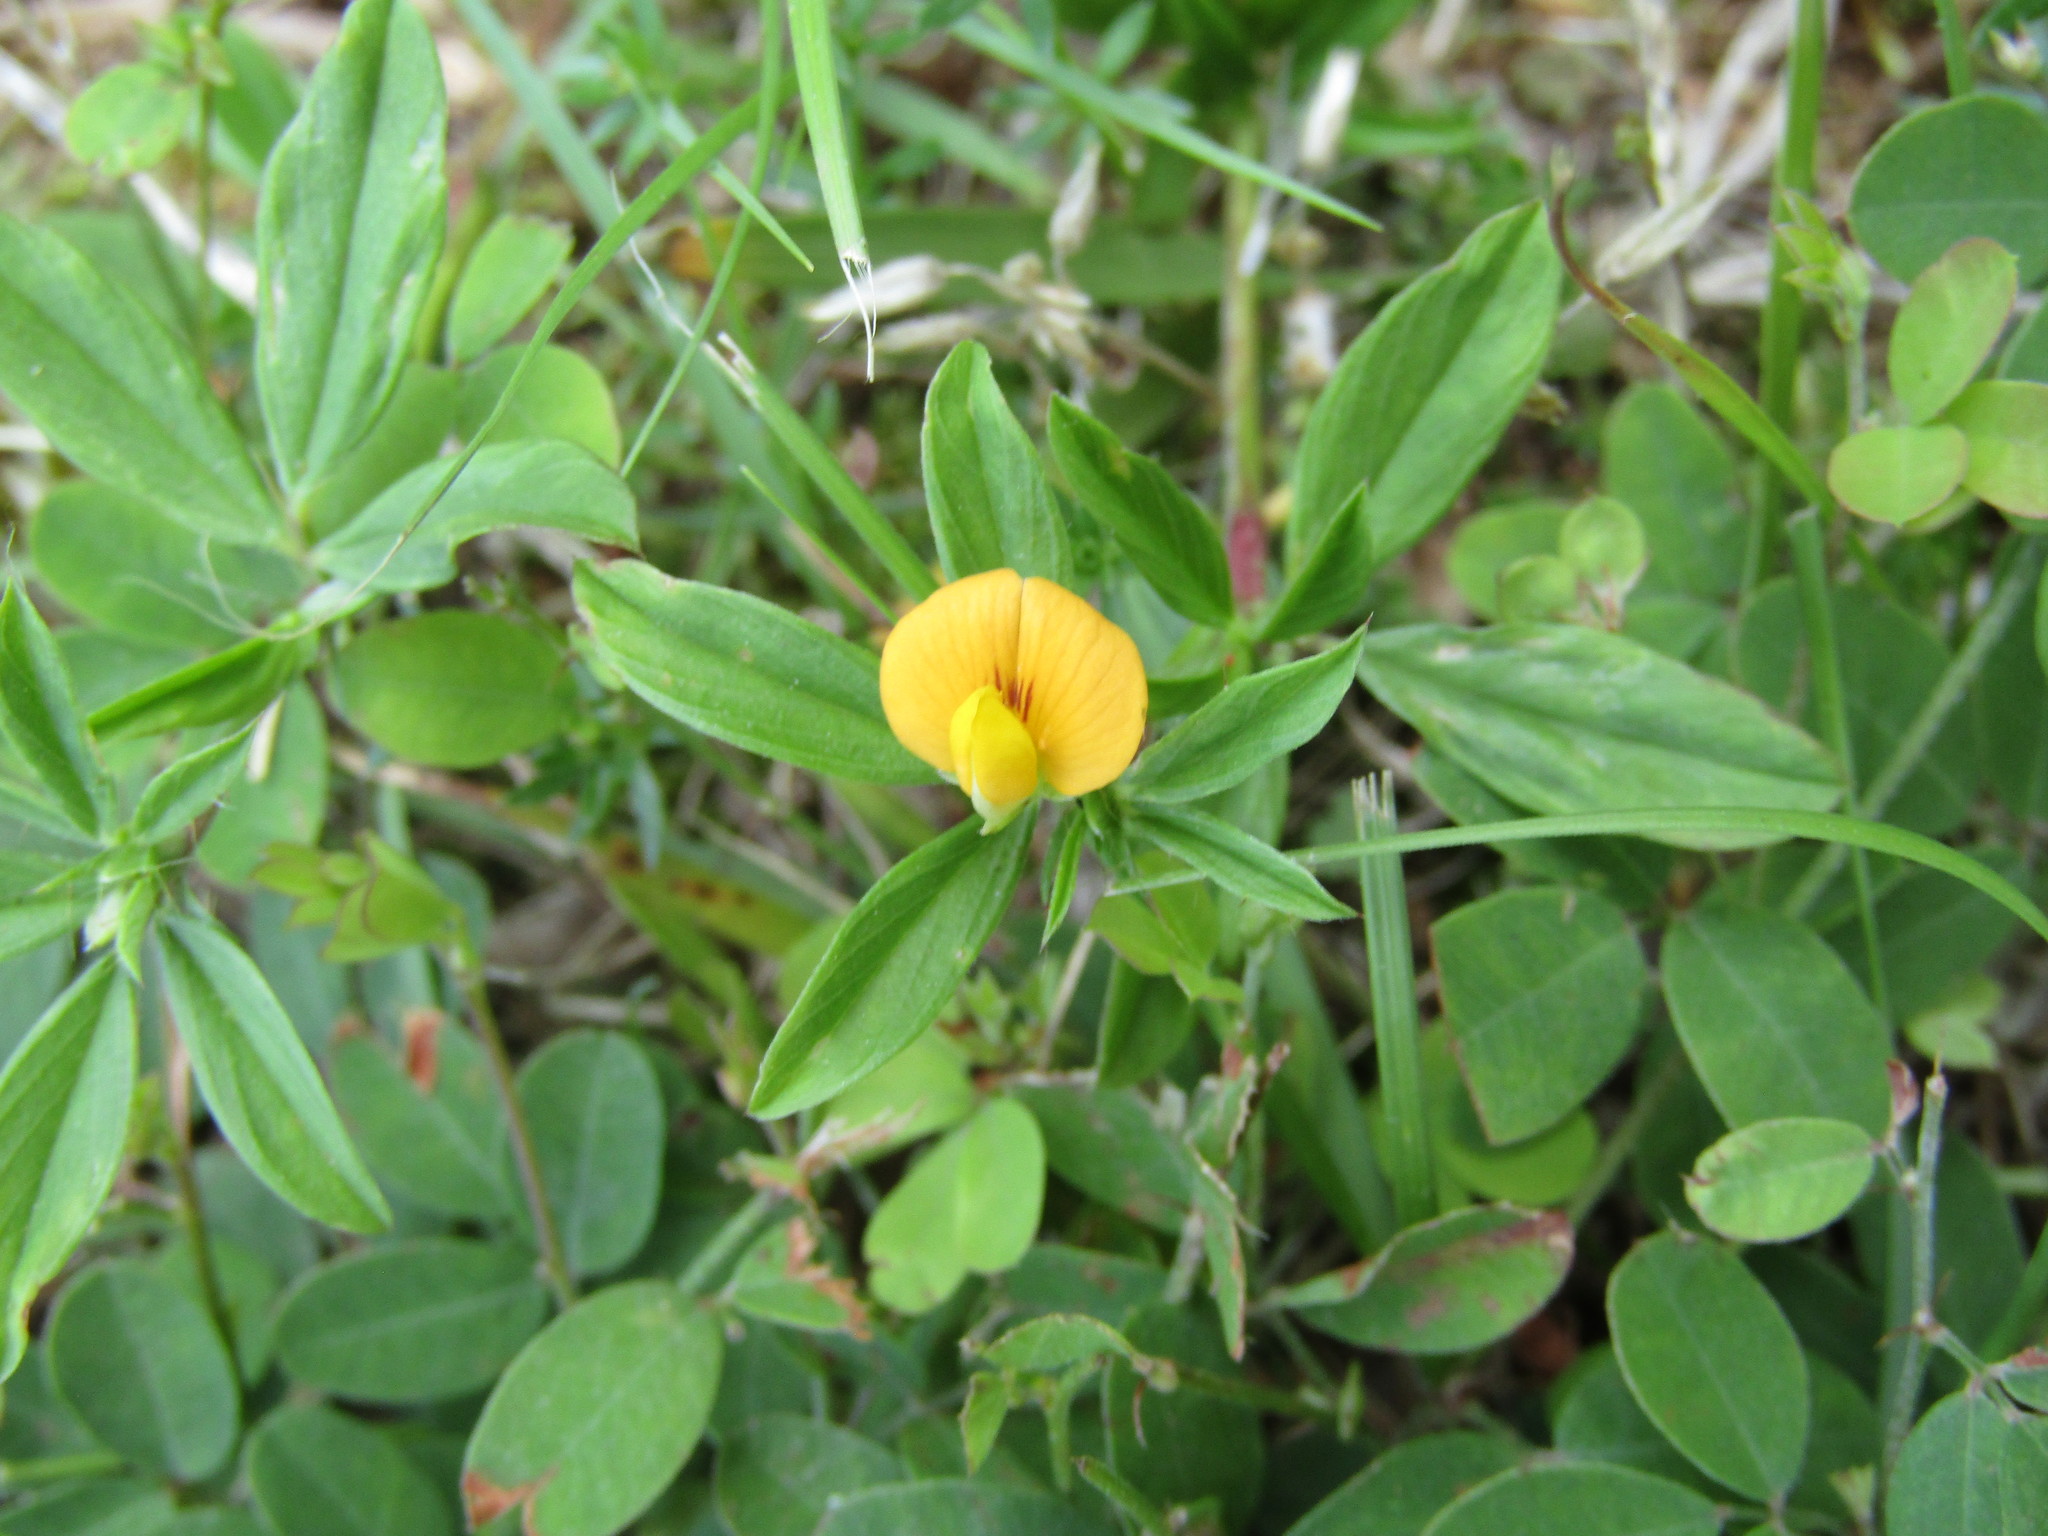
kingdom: Plantae
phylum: Tracheophyta
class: Magnoliopsida
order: Fabales
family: Fabaceae
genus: Stylosanthes
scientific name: Stylosanthes biflora
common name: Two-flower pencil-flower
